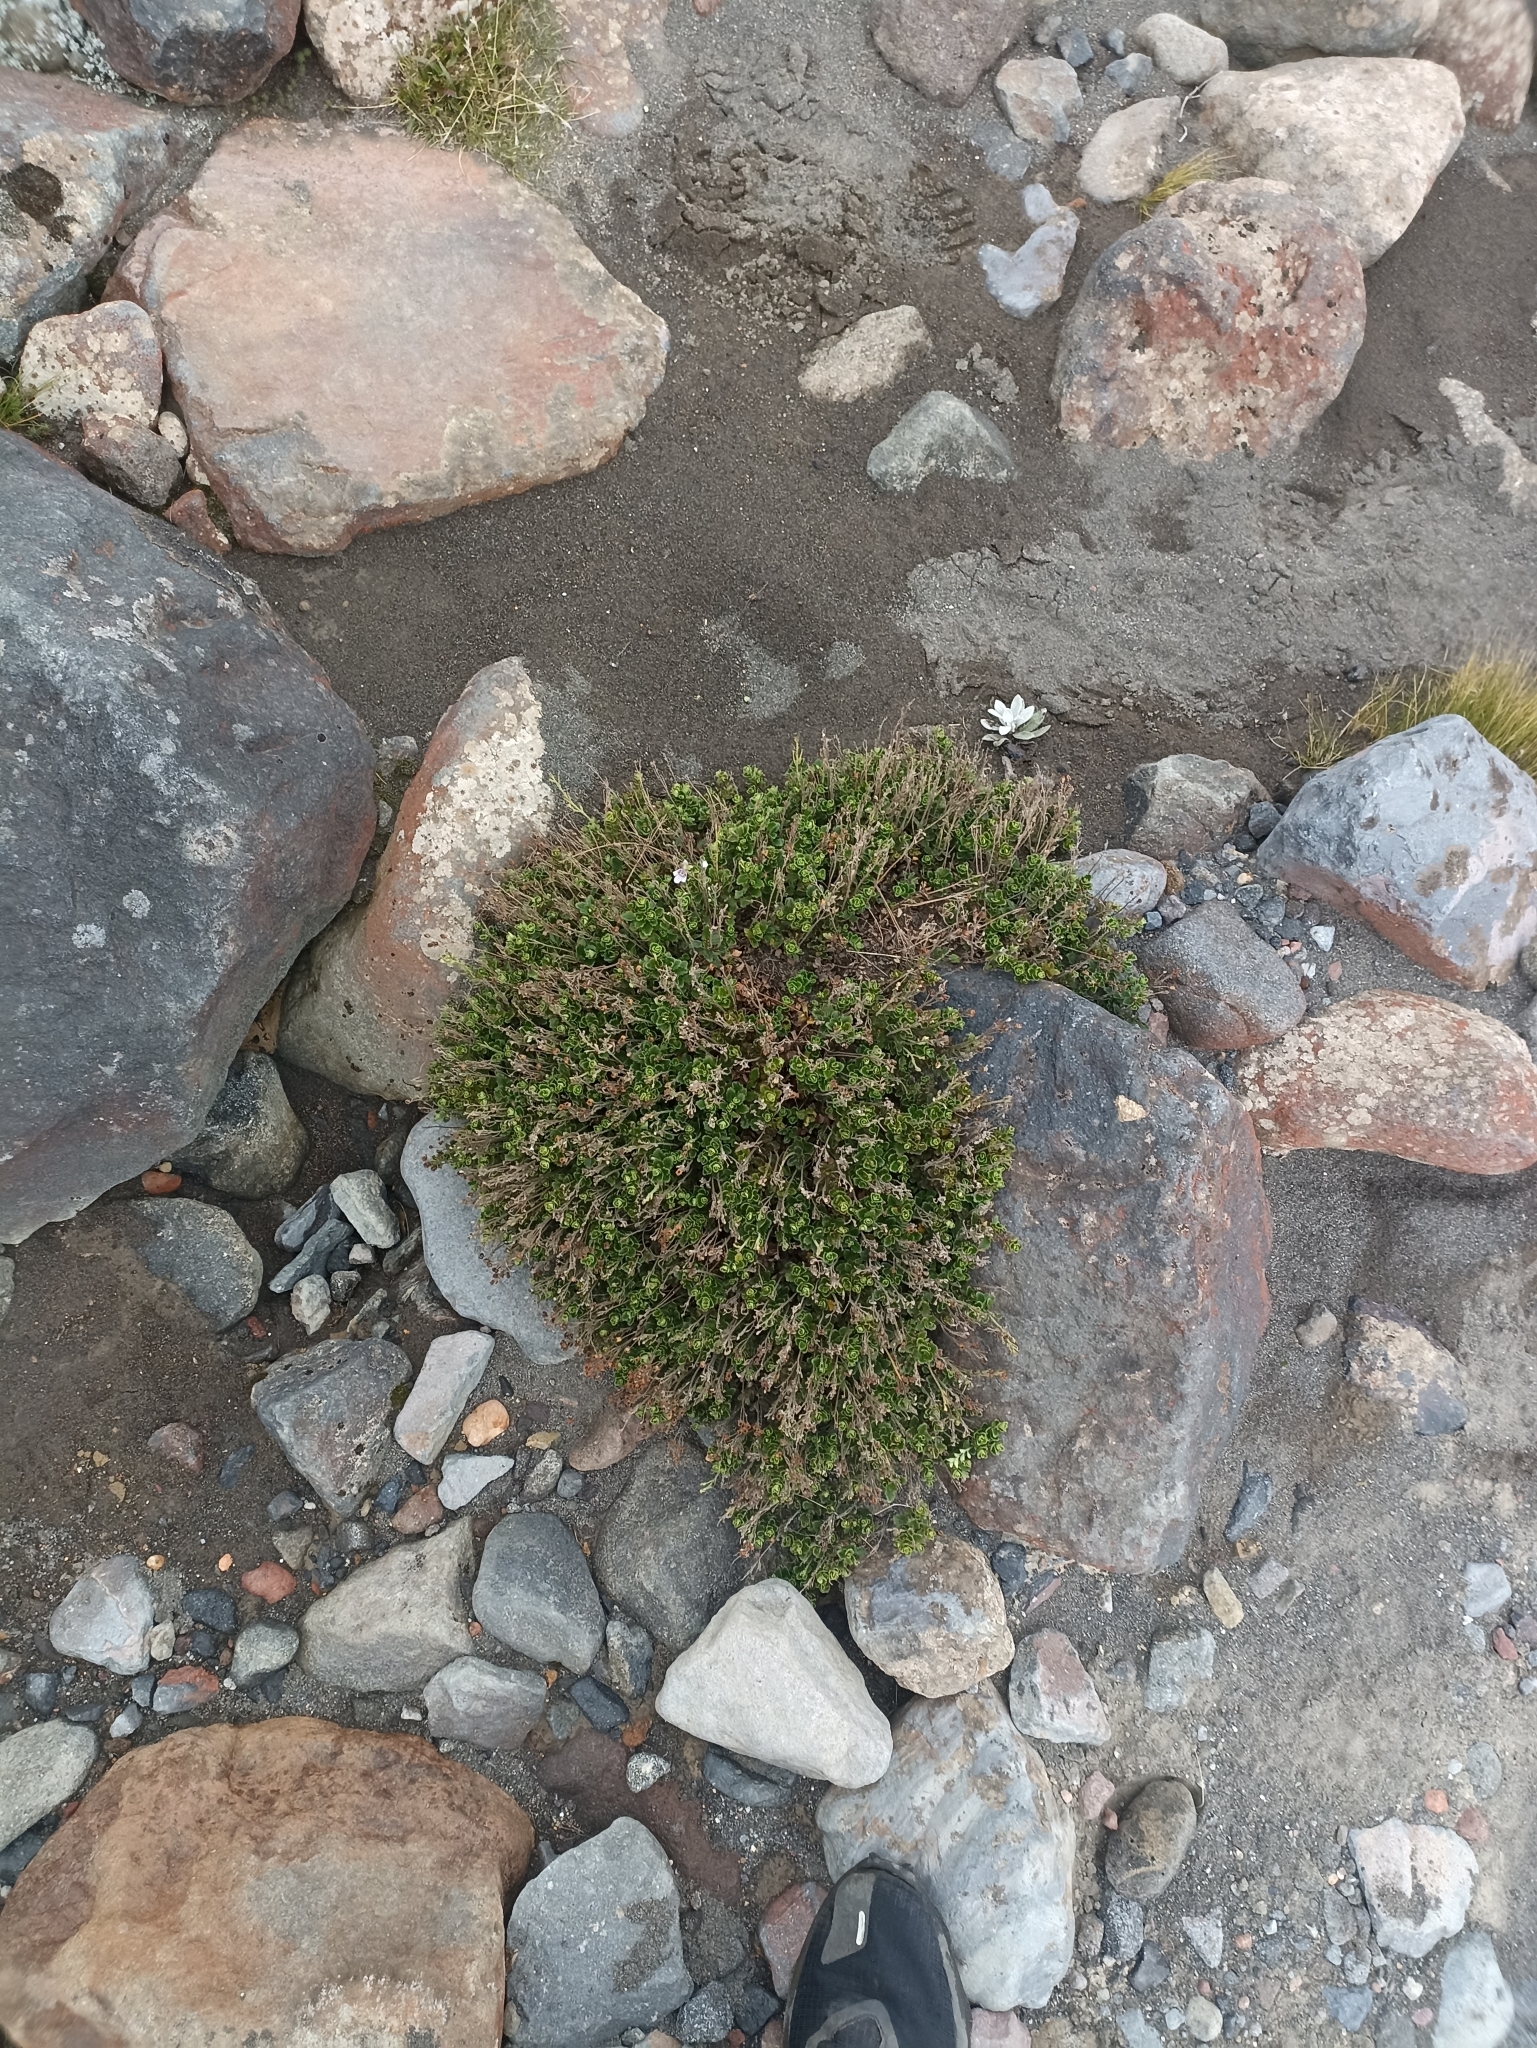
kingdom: Plantae
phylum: Tracheophyta
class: Magnoliopsida
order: Lamiales
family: Plantaginaceae
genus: Veronica
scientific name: Veronica hookeriana
